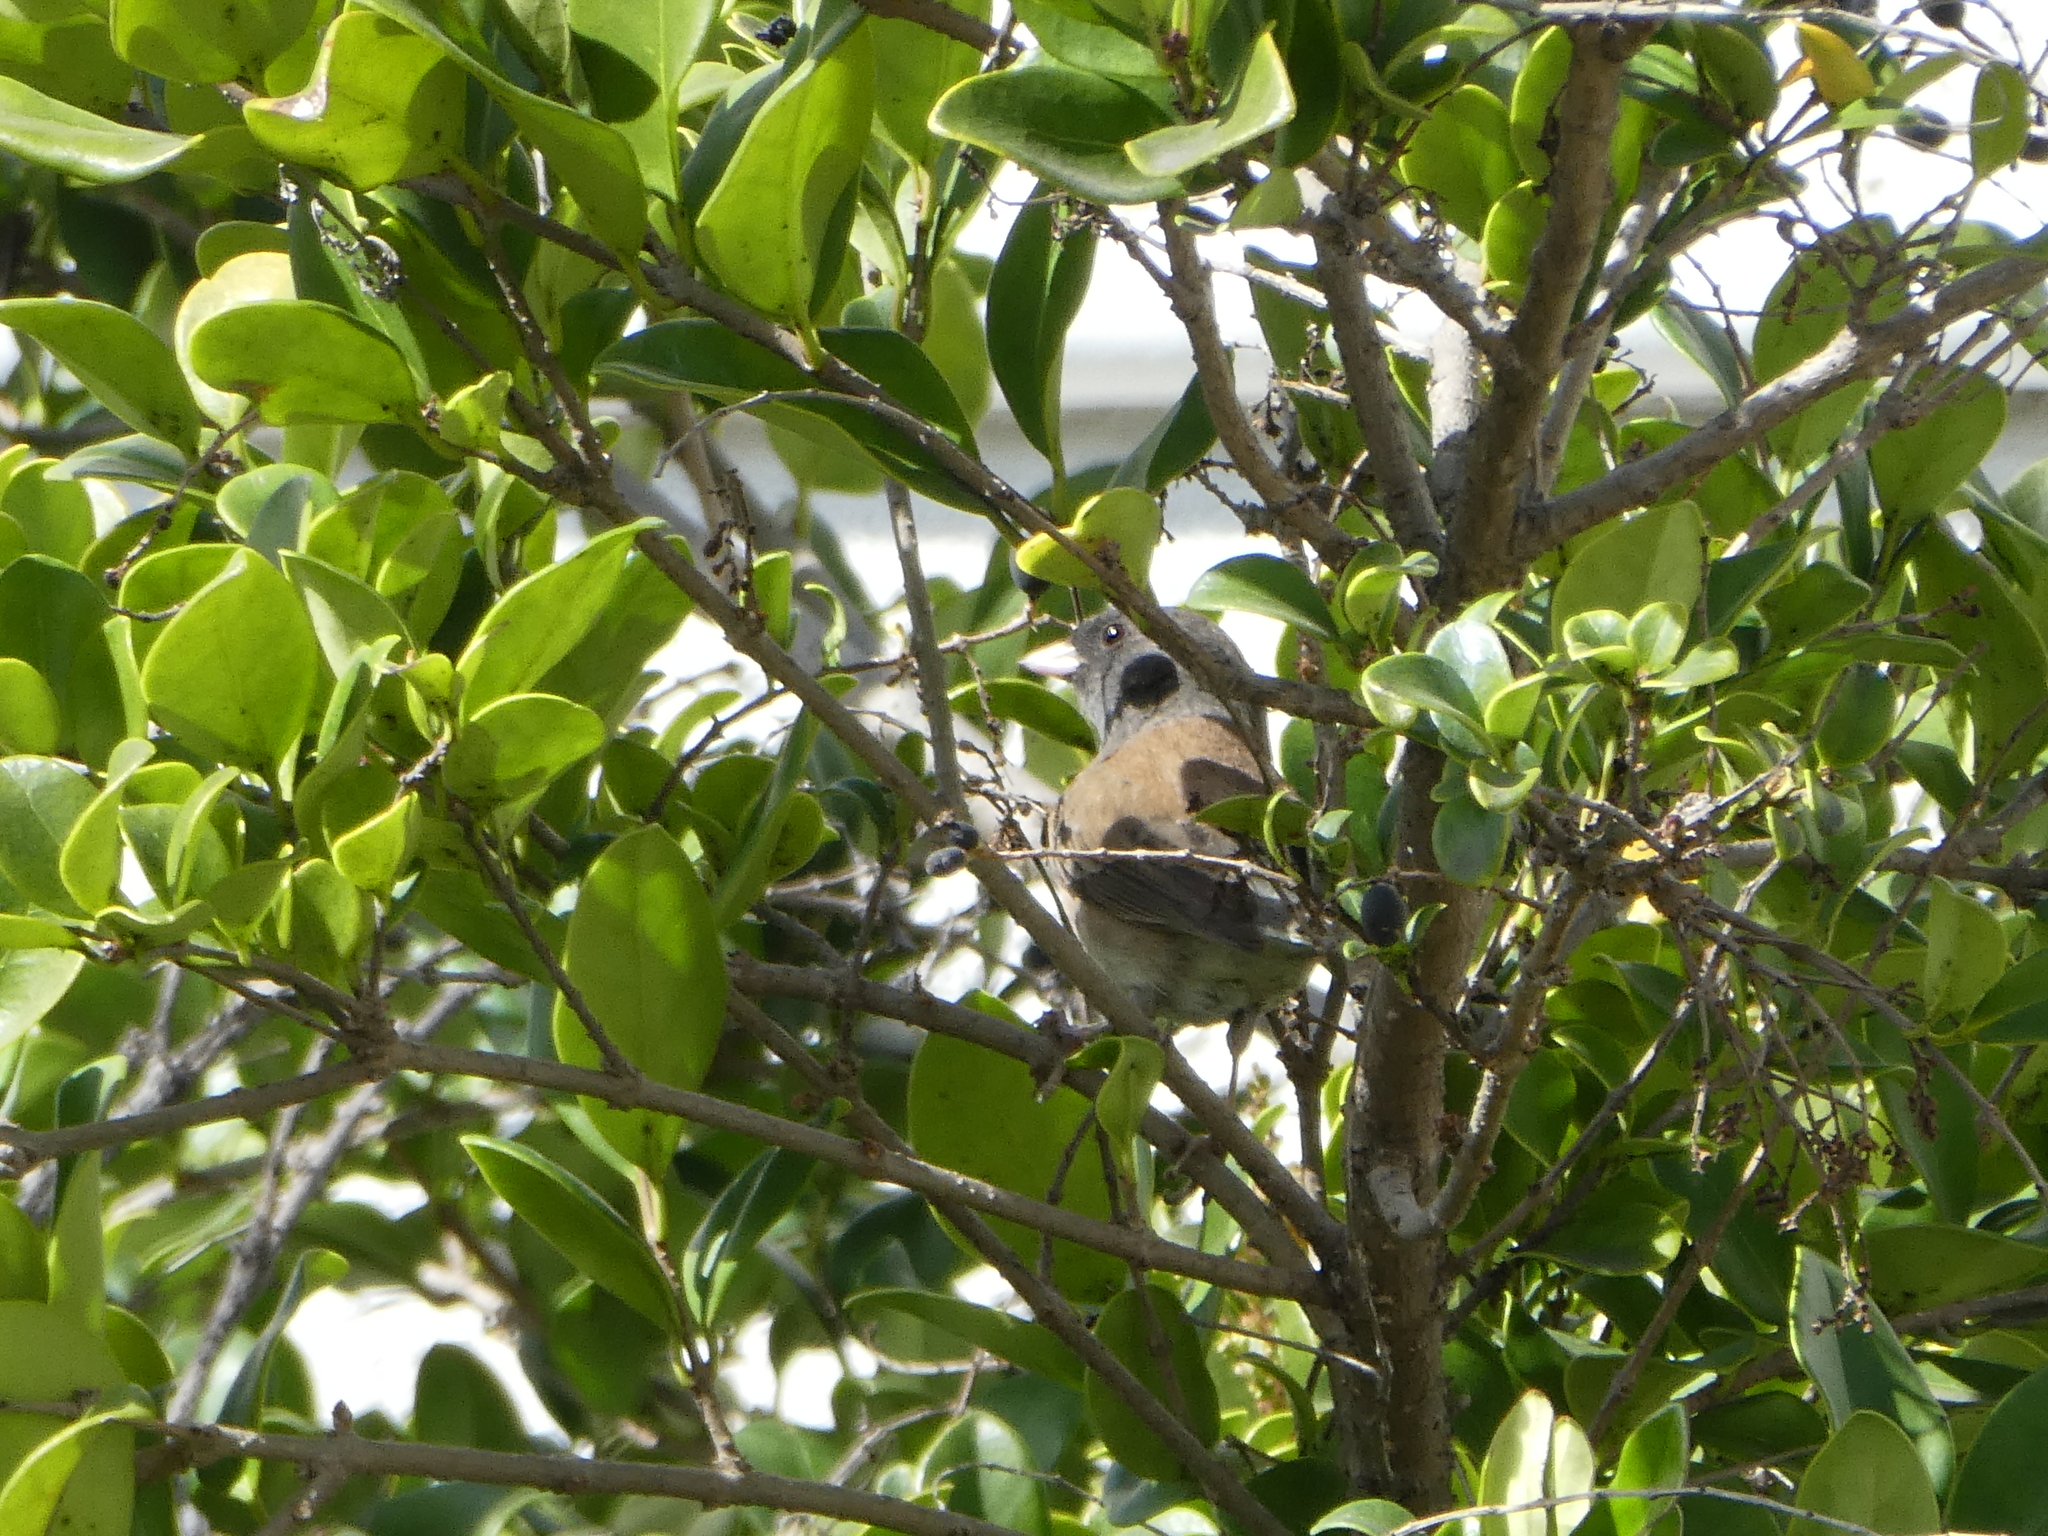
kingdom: Animalia
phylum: Chordata
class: Aves
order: Passeriformes
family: Passerellidae
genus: Junco
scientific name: Junco hyemalis
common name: Dark-eyed junco
